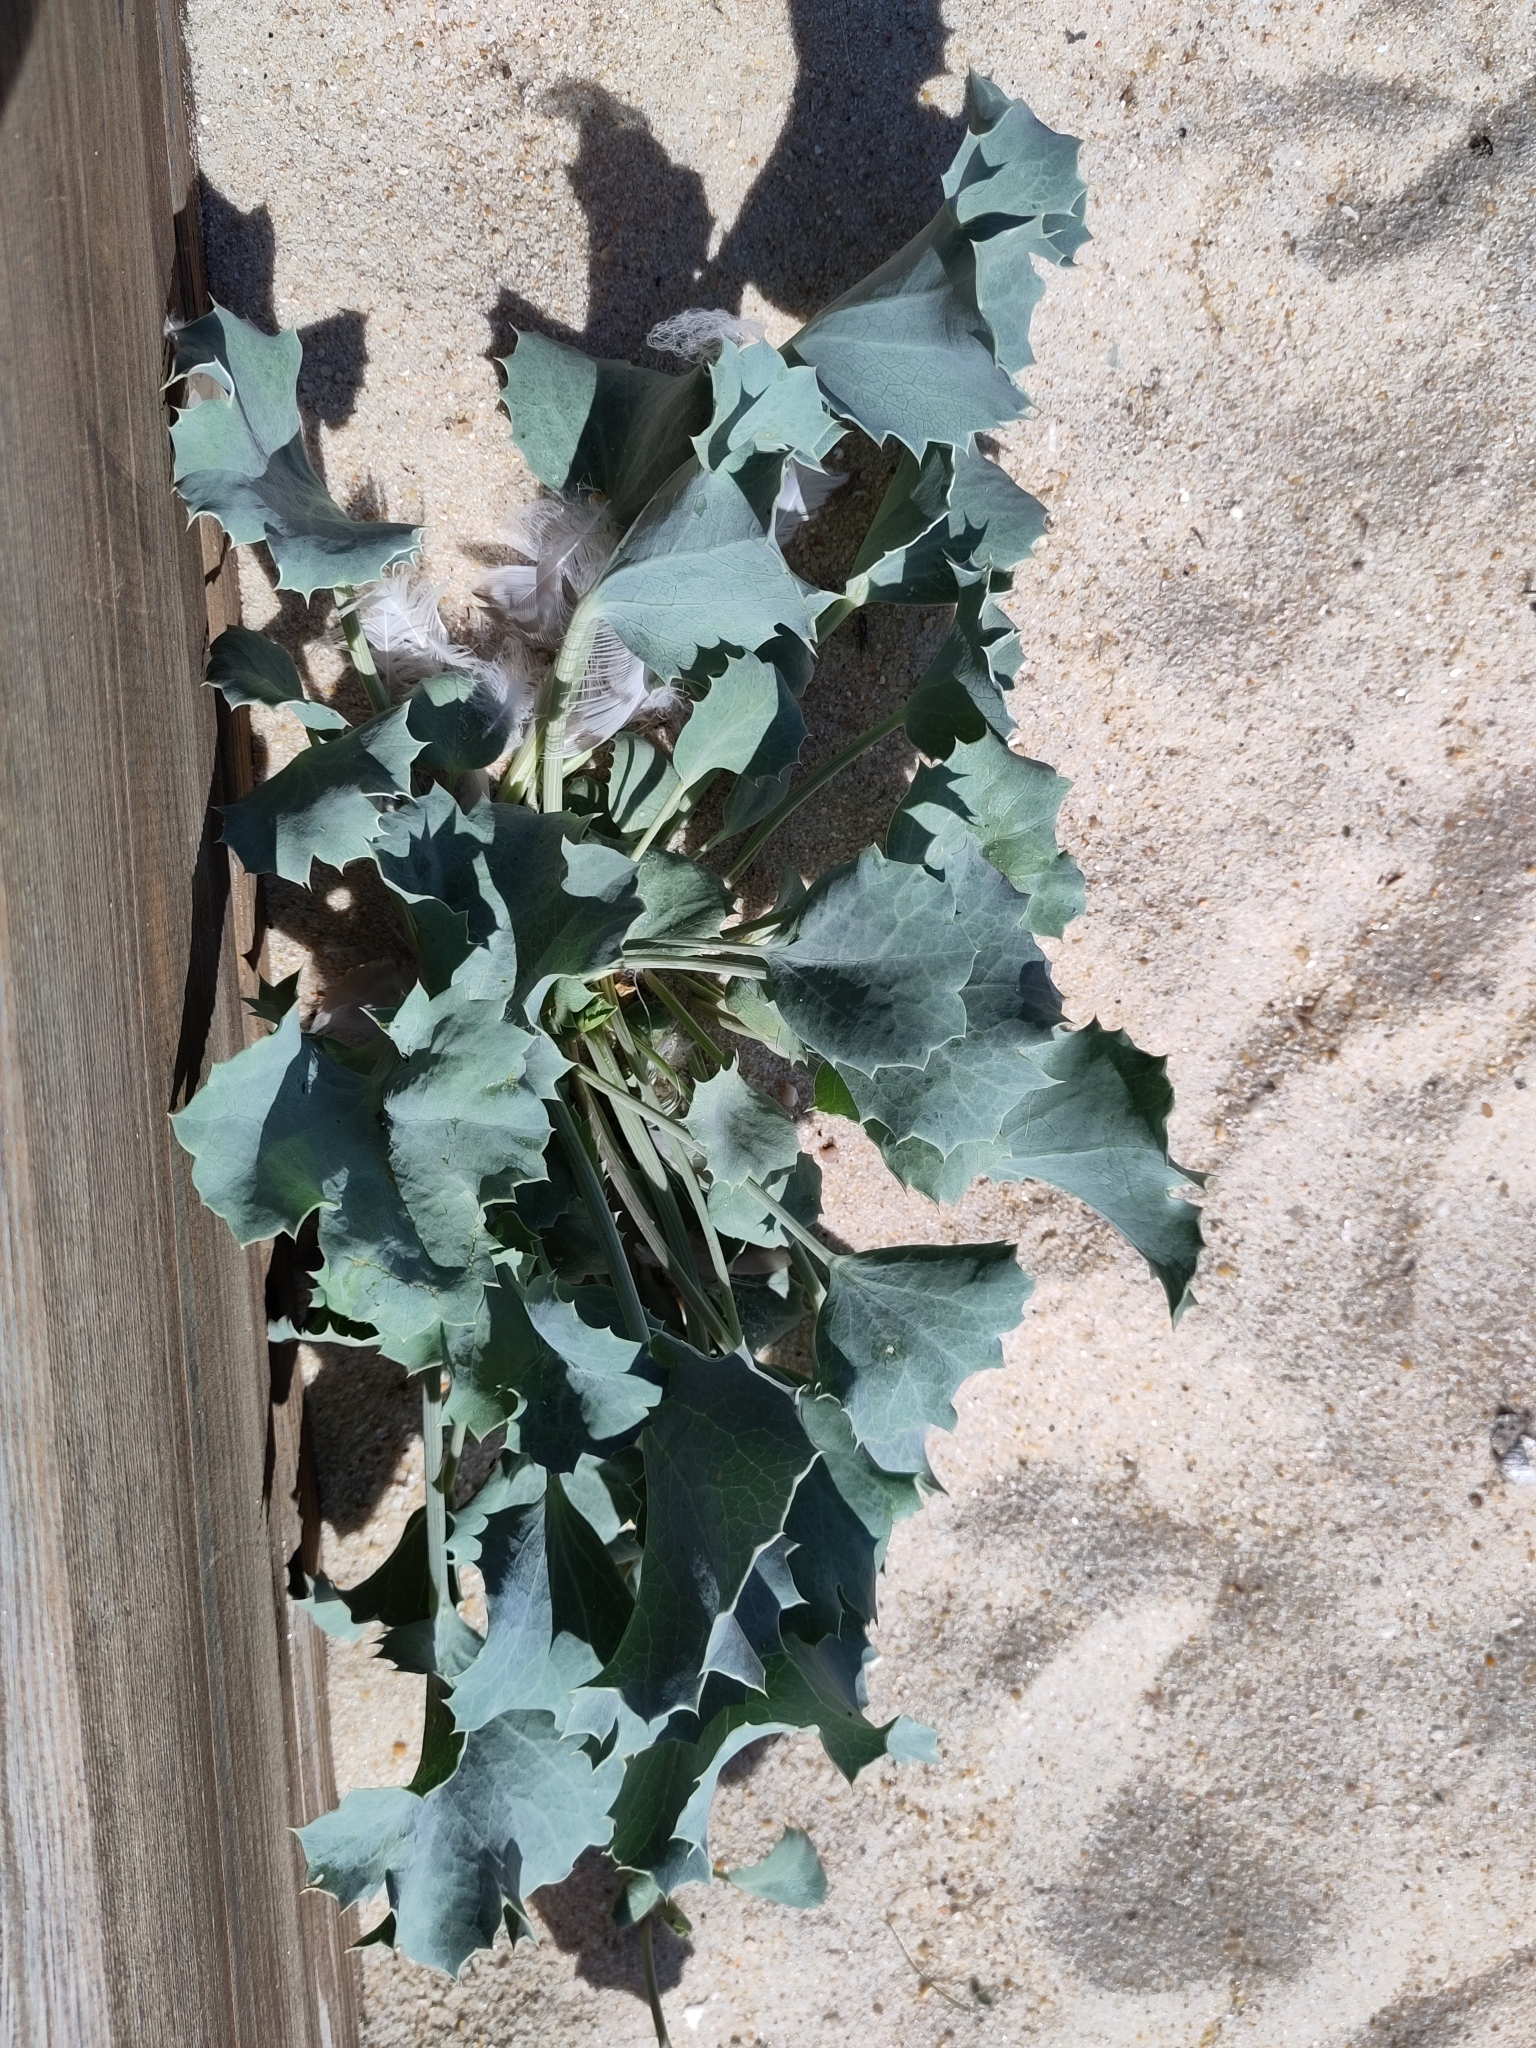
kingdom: Plantae
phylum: Tracheophyta
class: Magnoliopsida
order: Apiales
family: Apiaceae
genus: Eryngium
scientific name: Eryngium maritimum
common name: Sea-holly
